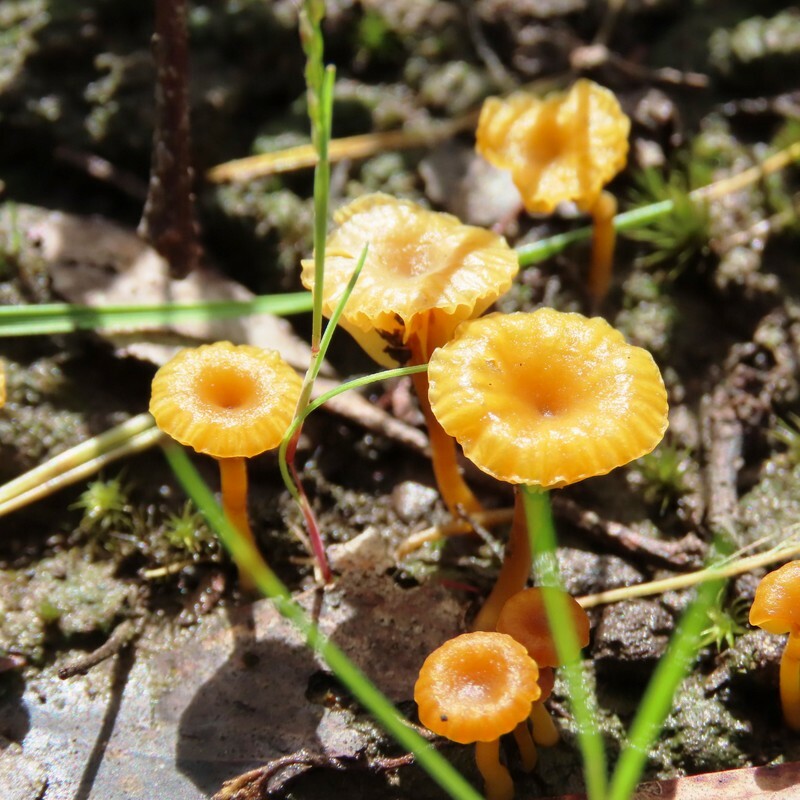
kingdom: Fungi
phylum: Basidiomycota
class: Agaricomycetes
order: Agaricales
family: Hygrophoraceae
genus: Lichenomphalia
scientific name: Lichenomphalia chromacea
